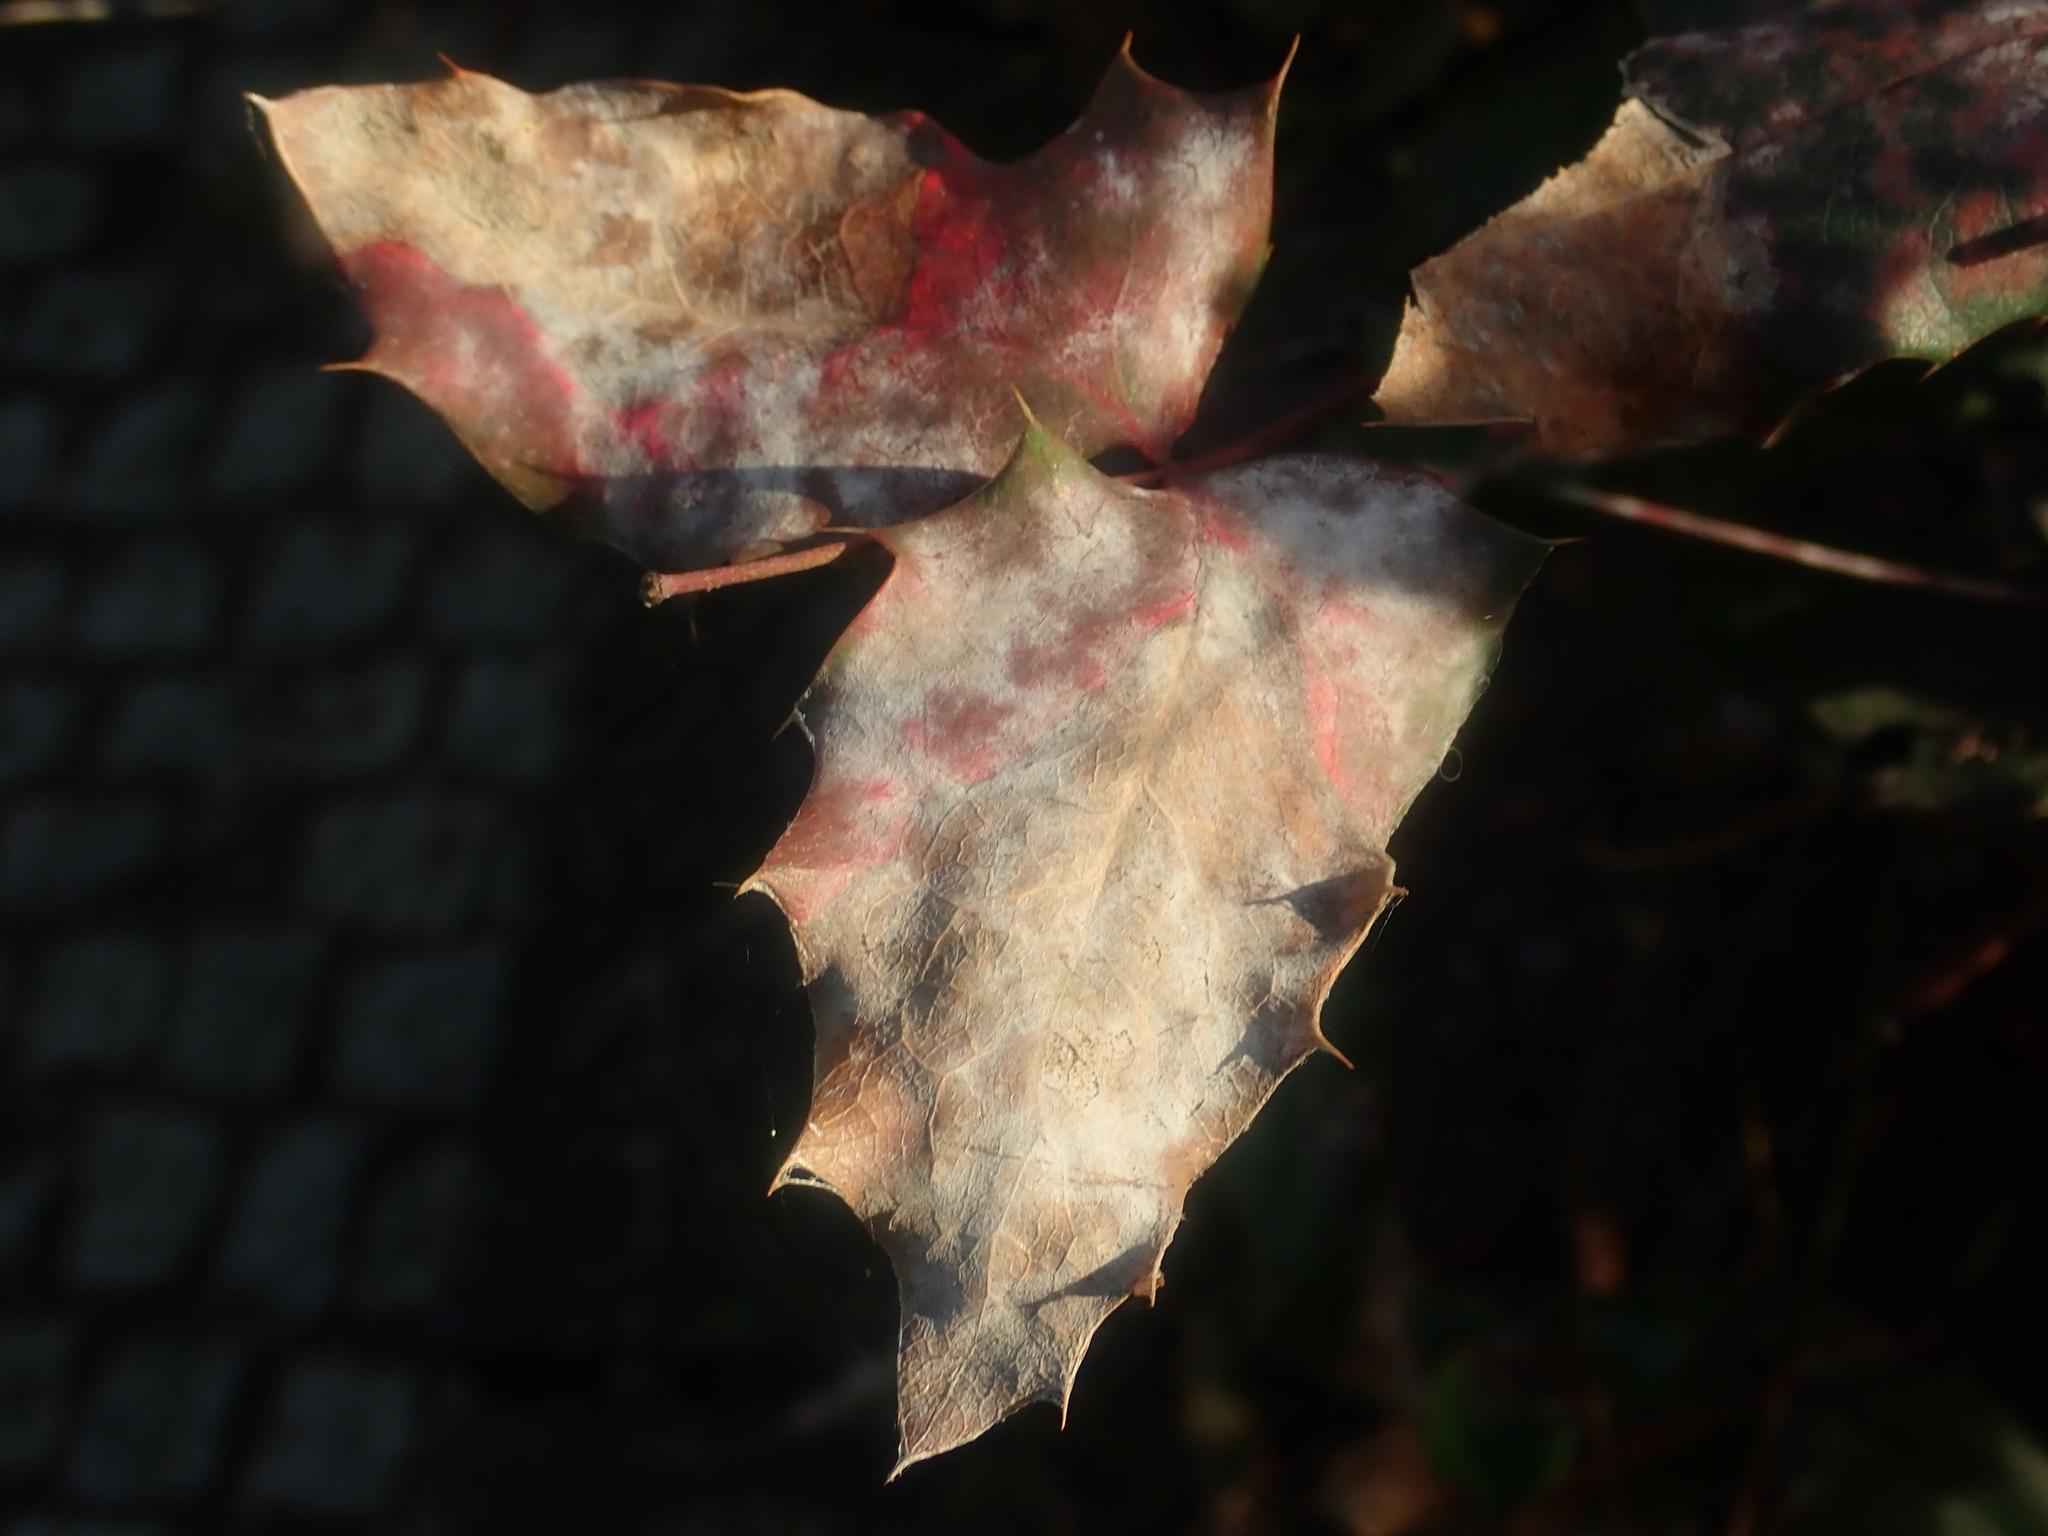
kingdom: Fungi
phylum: Ascomycota
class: Leotiomycetes
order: Helotiales
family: Erysiphaceae
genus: Erysiphe
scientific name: Erysiphe berberidis
